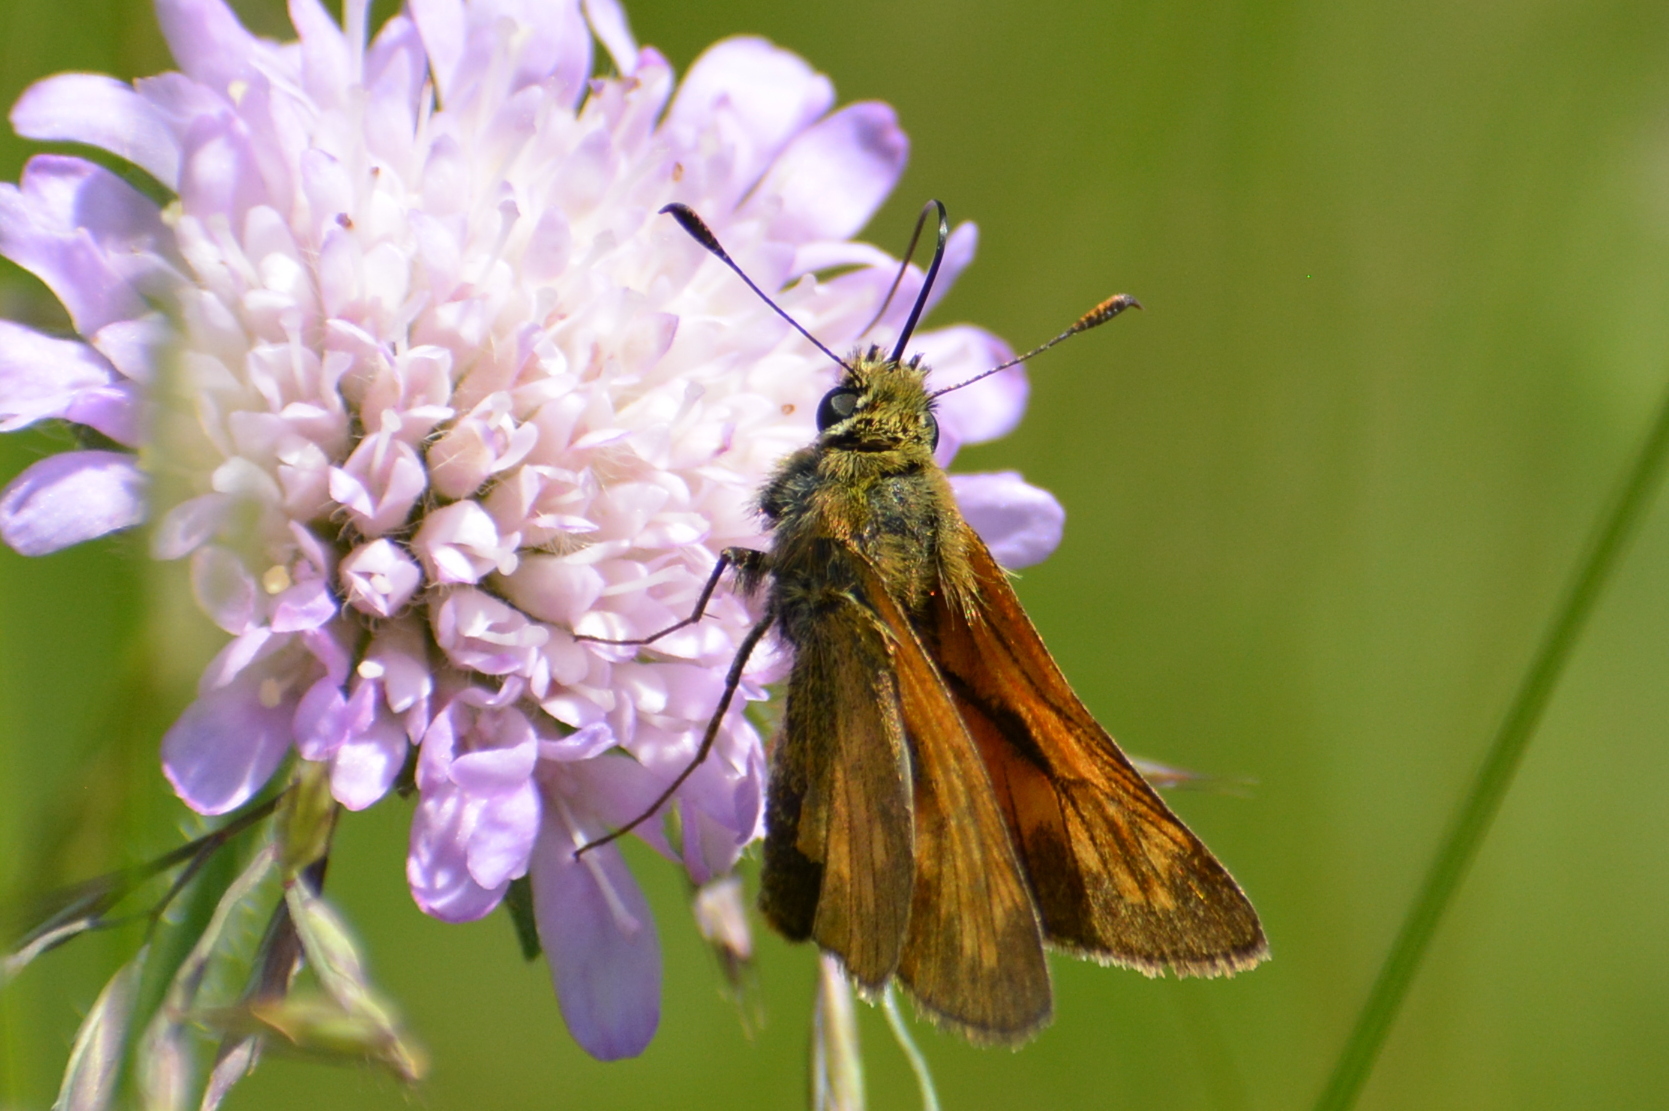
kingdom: Animalia
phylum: Arthropoda
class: Insecta
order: Lepidoptera
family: Hesperiidae
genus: Ochlodes
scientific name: Ochlodes venata
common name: Large skipper
